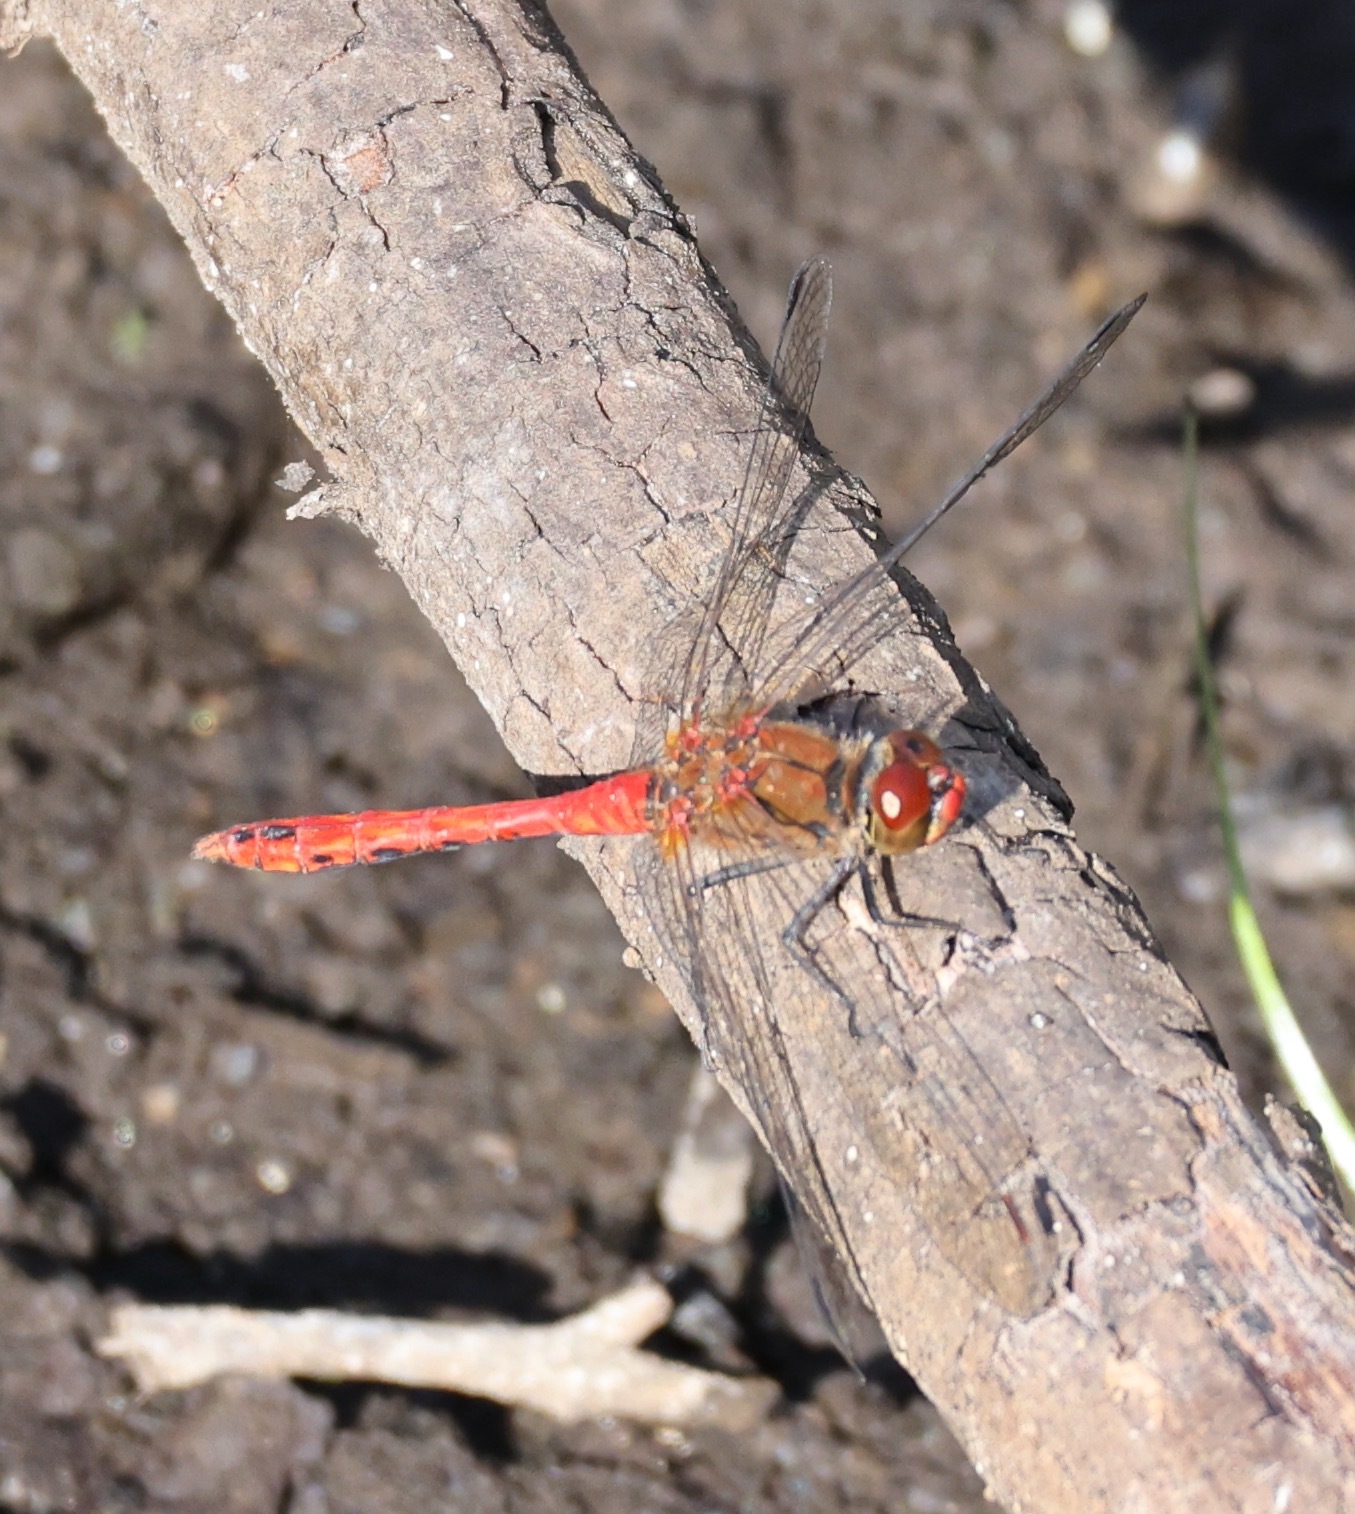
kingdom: Animalia
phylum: Arthropoda
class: Insecta
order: Odonata
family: Libellulidae
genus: Sympetrum
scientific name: Sympetrum sanguineum
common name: Ruddy darter
